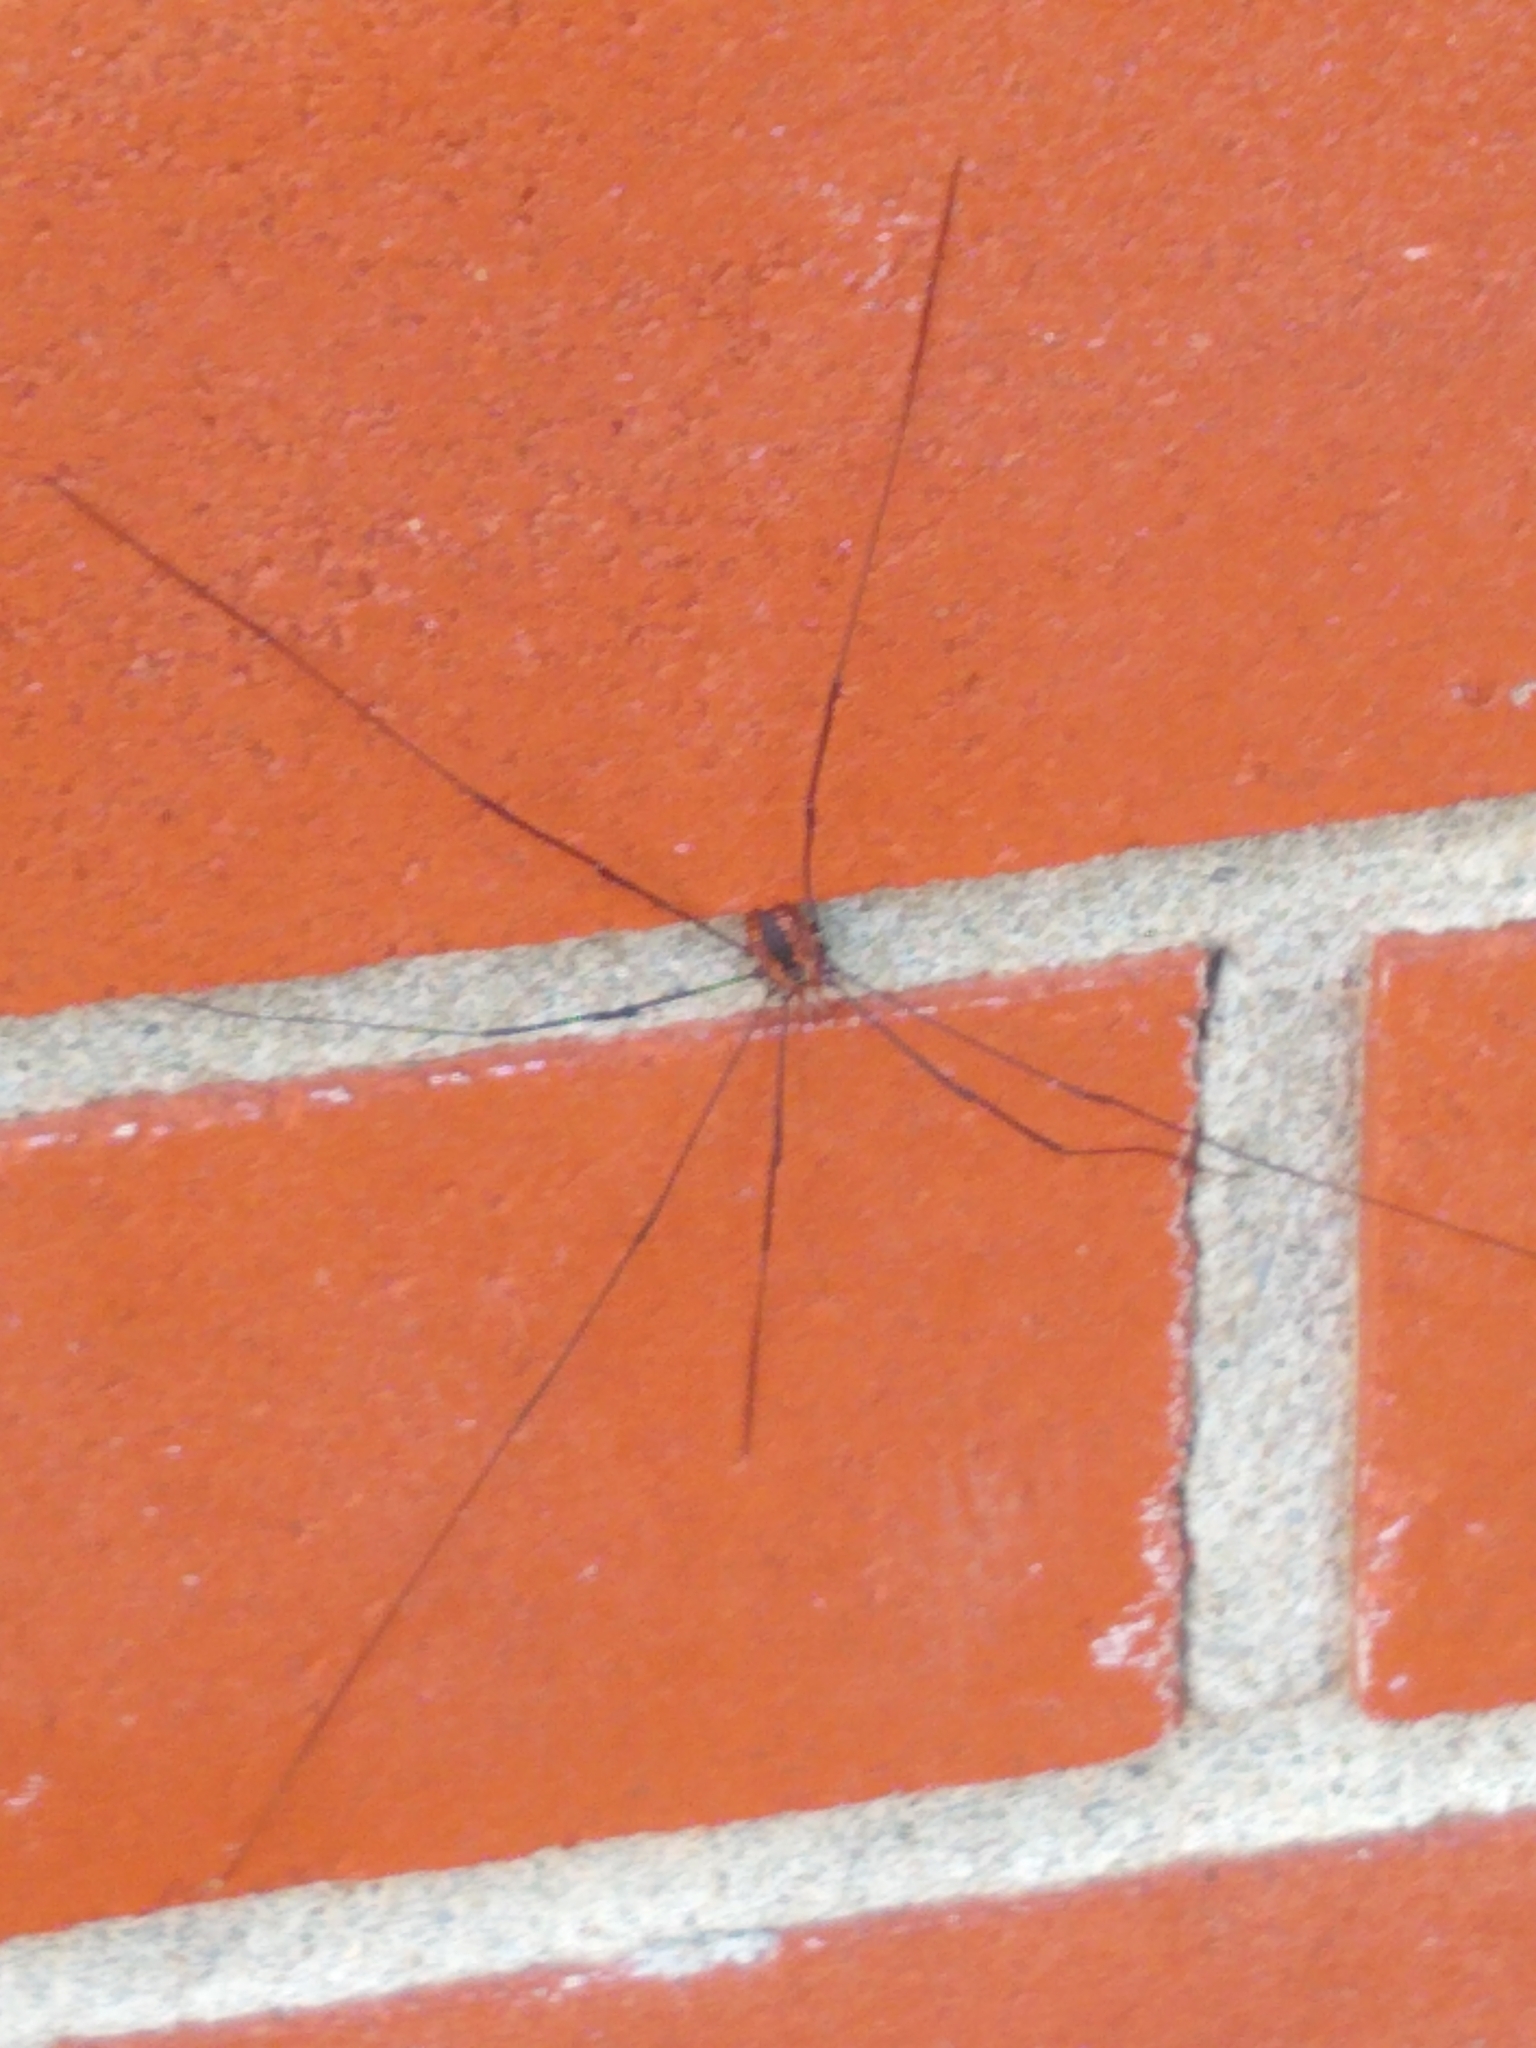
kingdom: Animalia
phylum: Arthropoda
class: Arachnida
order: Opiliones
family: Sclerosomatidae
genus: Leiobunum
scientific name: Leiobunum vittatum
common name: Eastern harvestman
